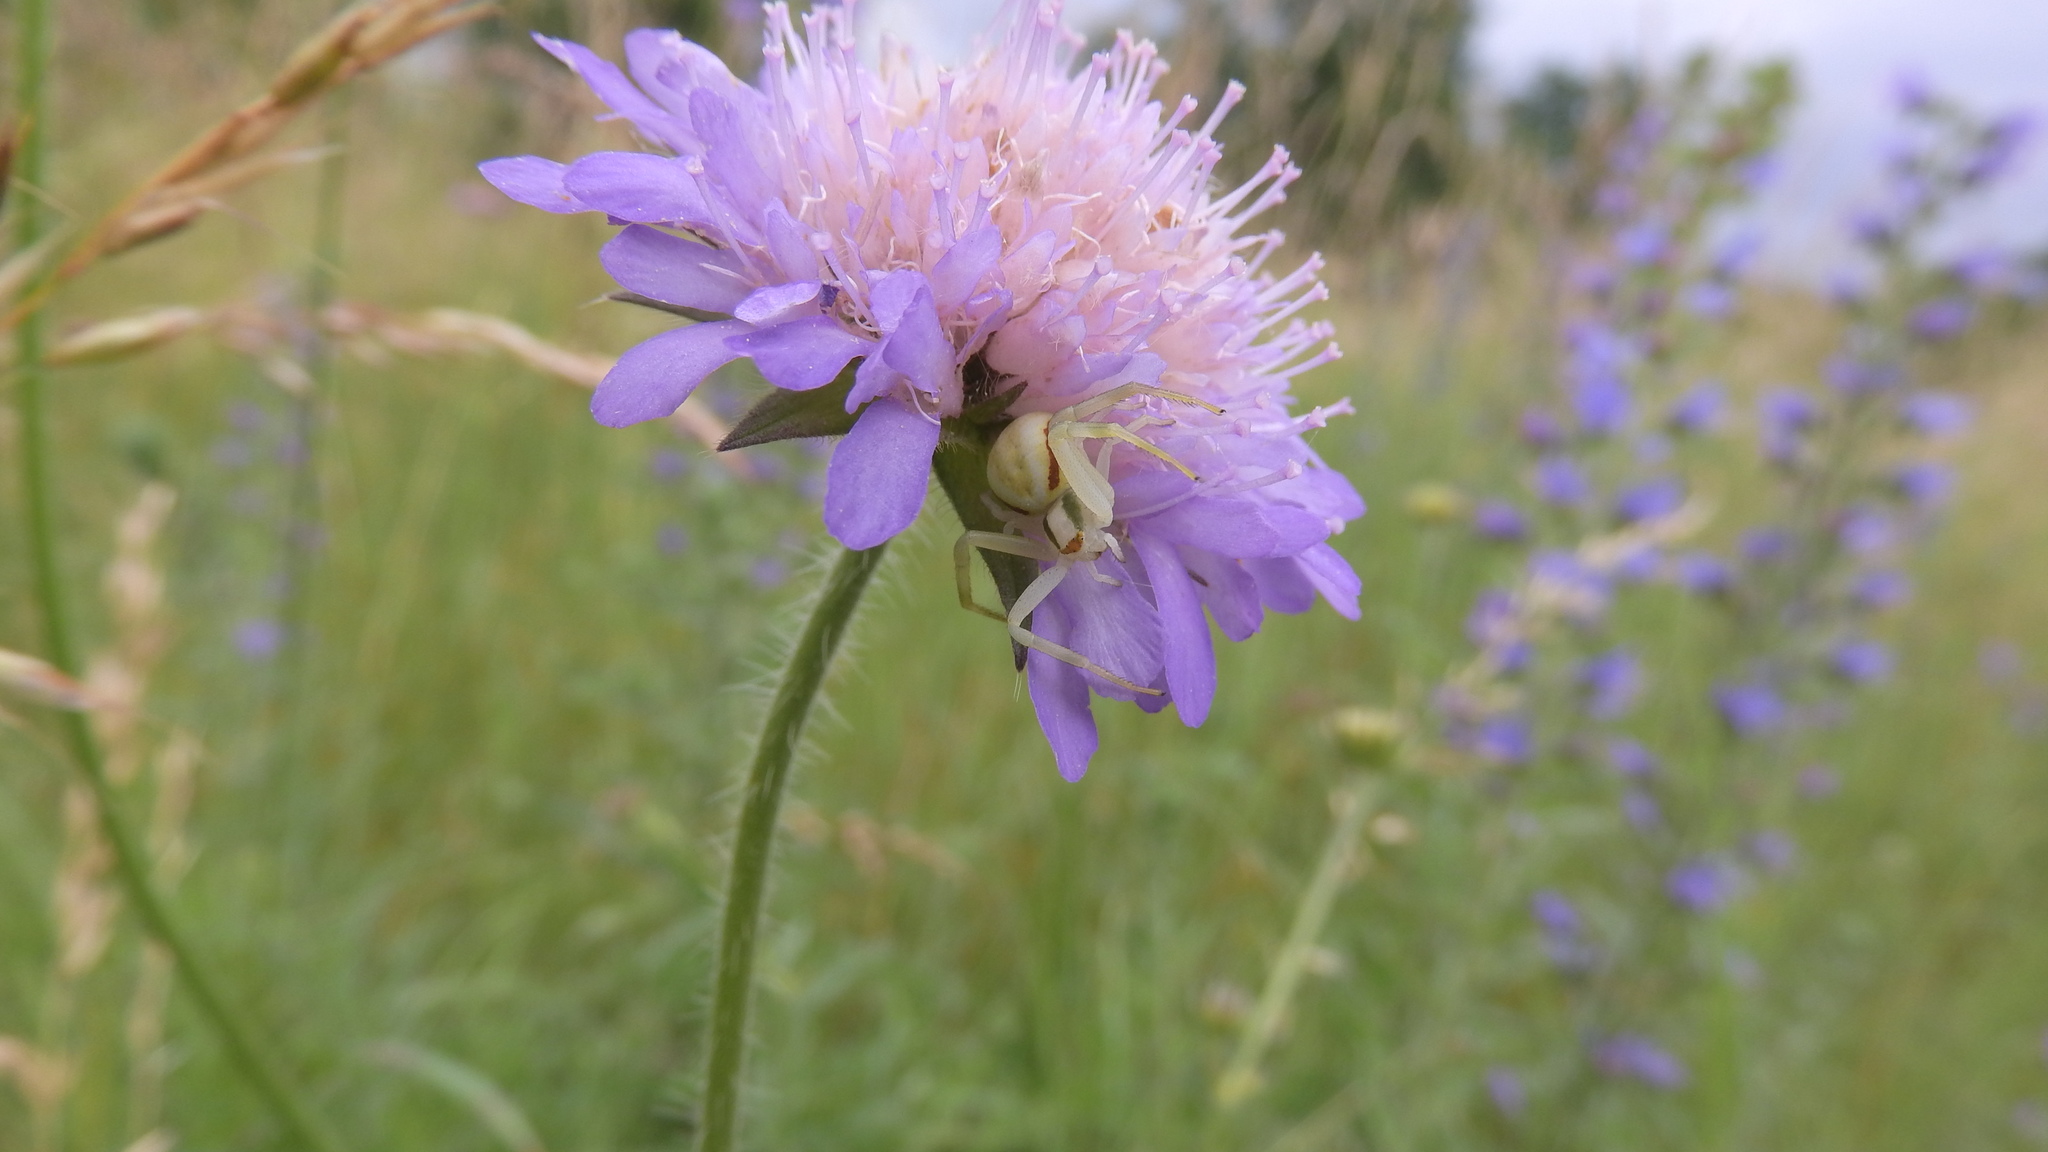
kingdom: Animalia
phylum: Arthropoda
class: Arachnida
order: Araneae
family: Thomisidae
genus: Misumena
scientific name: Misumena vatia
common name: Goldenrod crab spider
